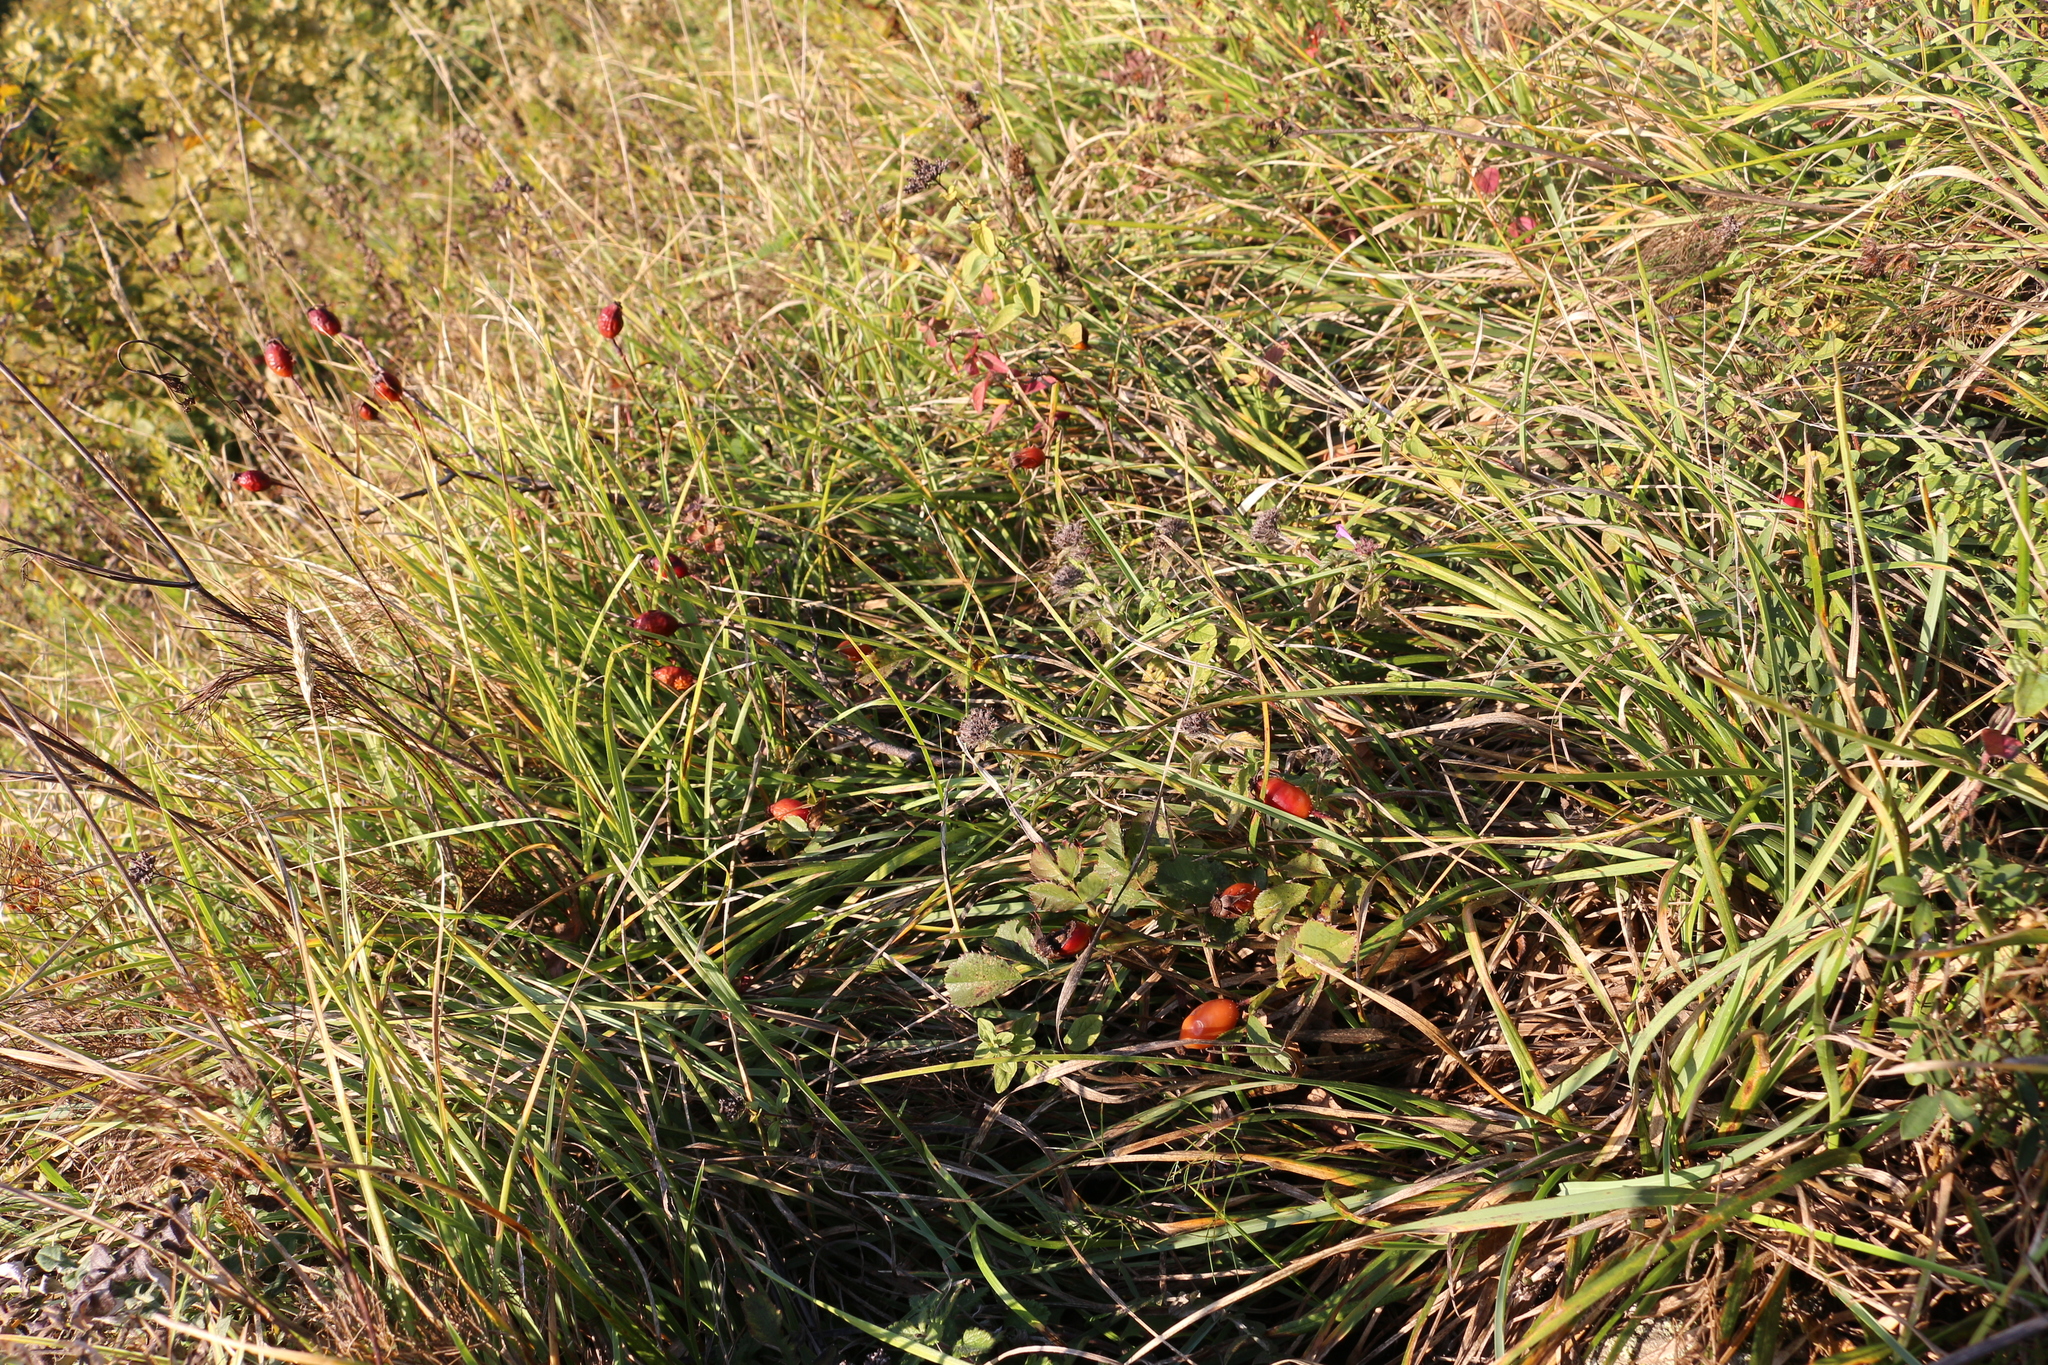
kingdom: Plantae
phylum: Tracheophyta
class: Magnoliopsida
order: Rosales
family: Rosaceae
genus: Rosa
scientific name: Rosa canina
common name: Dog rose
